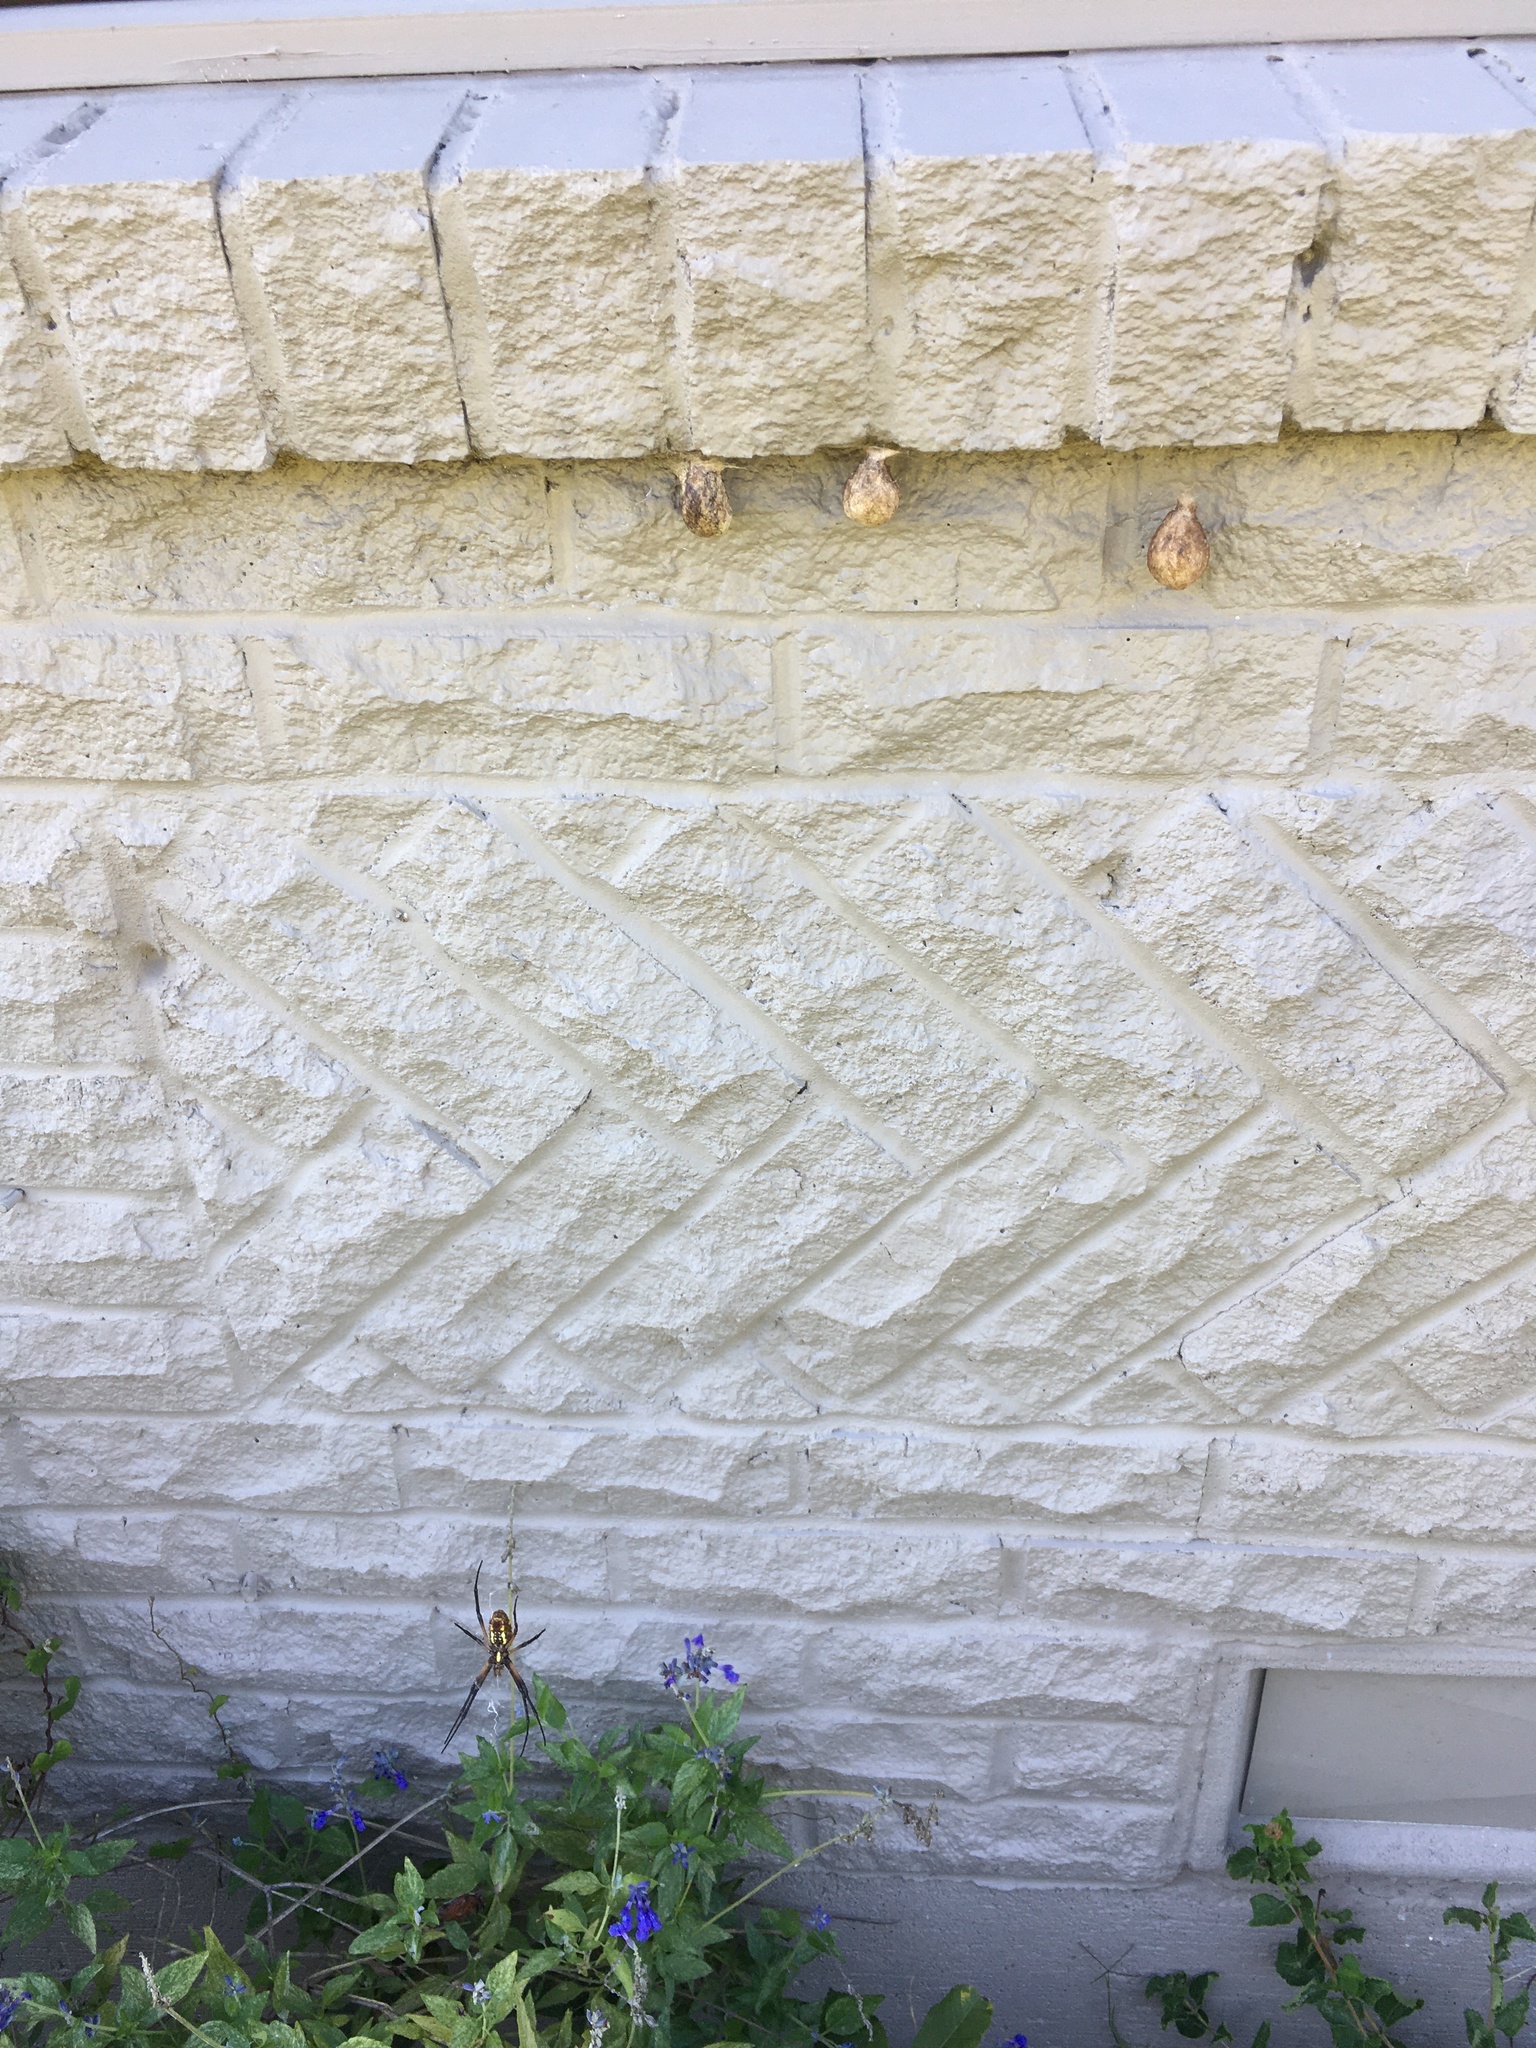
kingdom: Animalia
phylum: Arthropoda
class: Arachnida
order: Araneae
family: Araneidae
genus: Argiope
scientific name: Argiope aurantia
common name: Orb weavers
